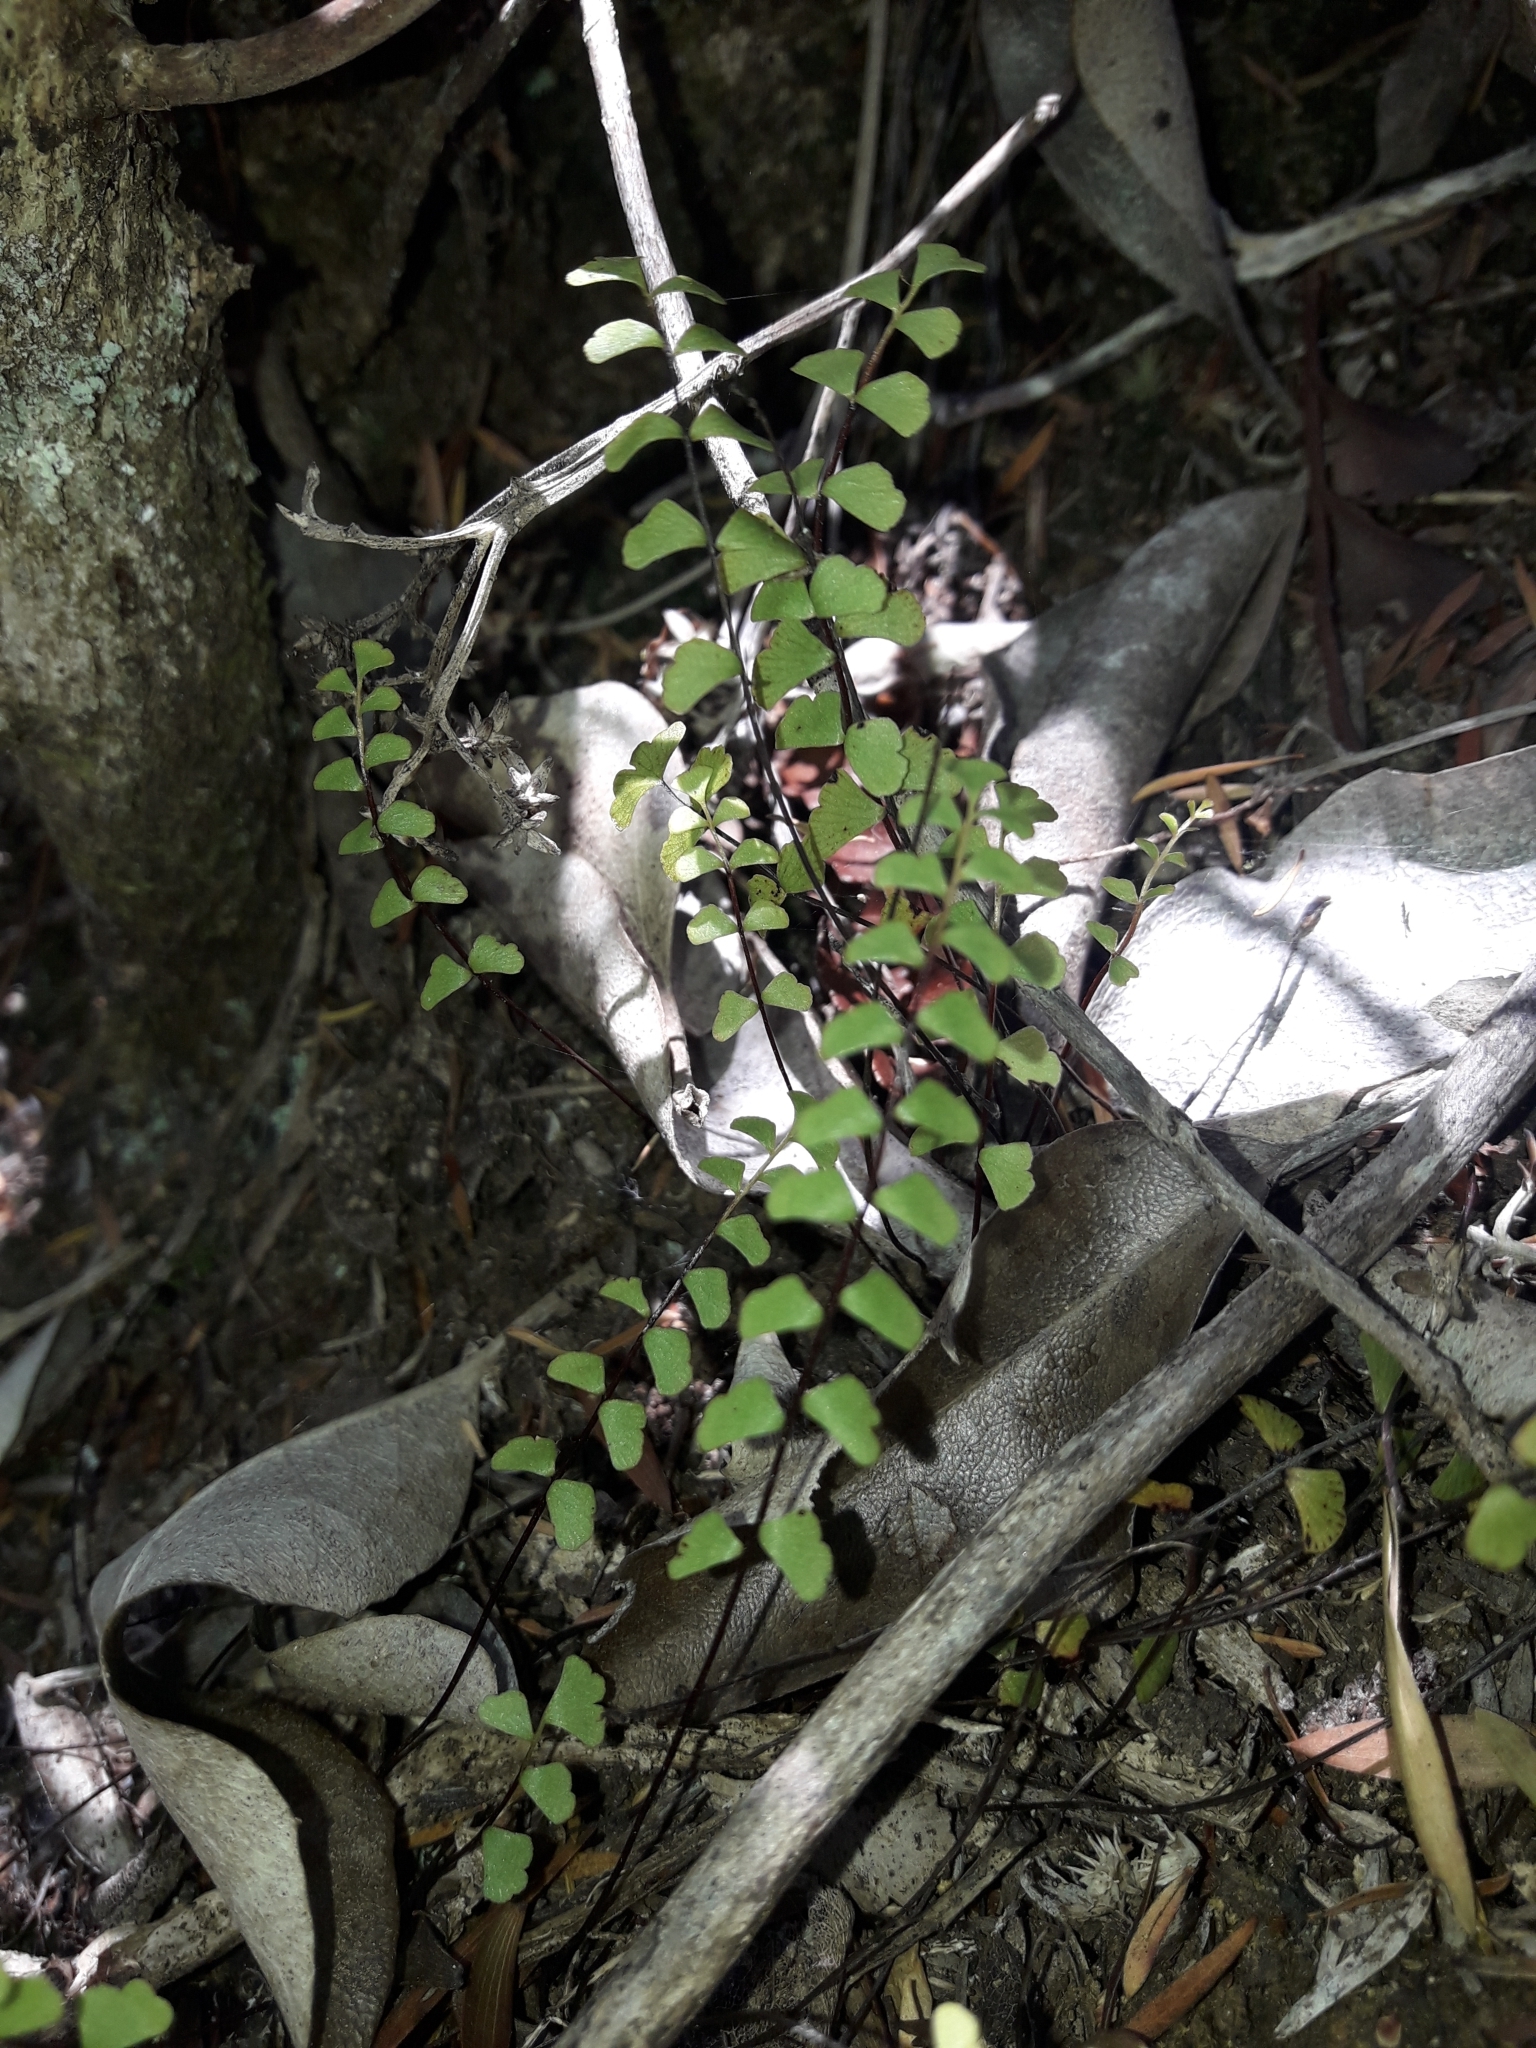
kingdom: Plantae
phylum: Tracheophyta
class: Polypodiopsida
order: Polypodiales
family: Lindsaeaceae
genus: Lindsaea
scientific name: Lindsaea linearis
